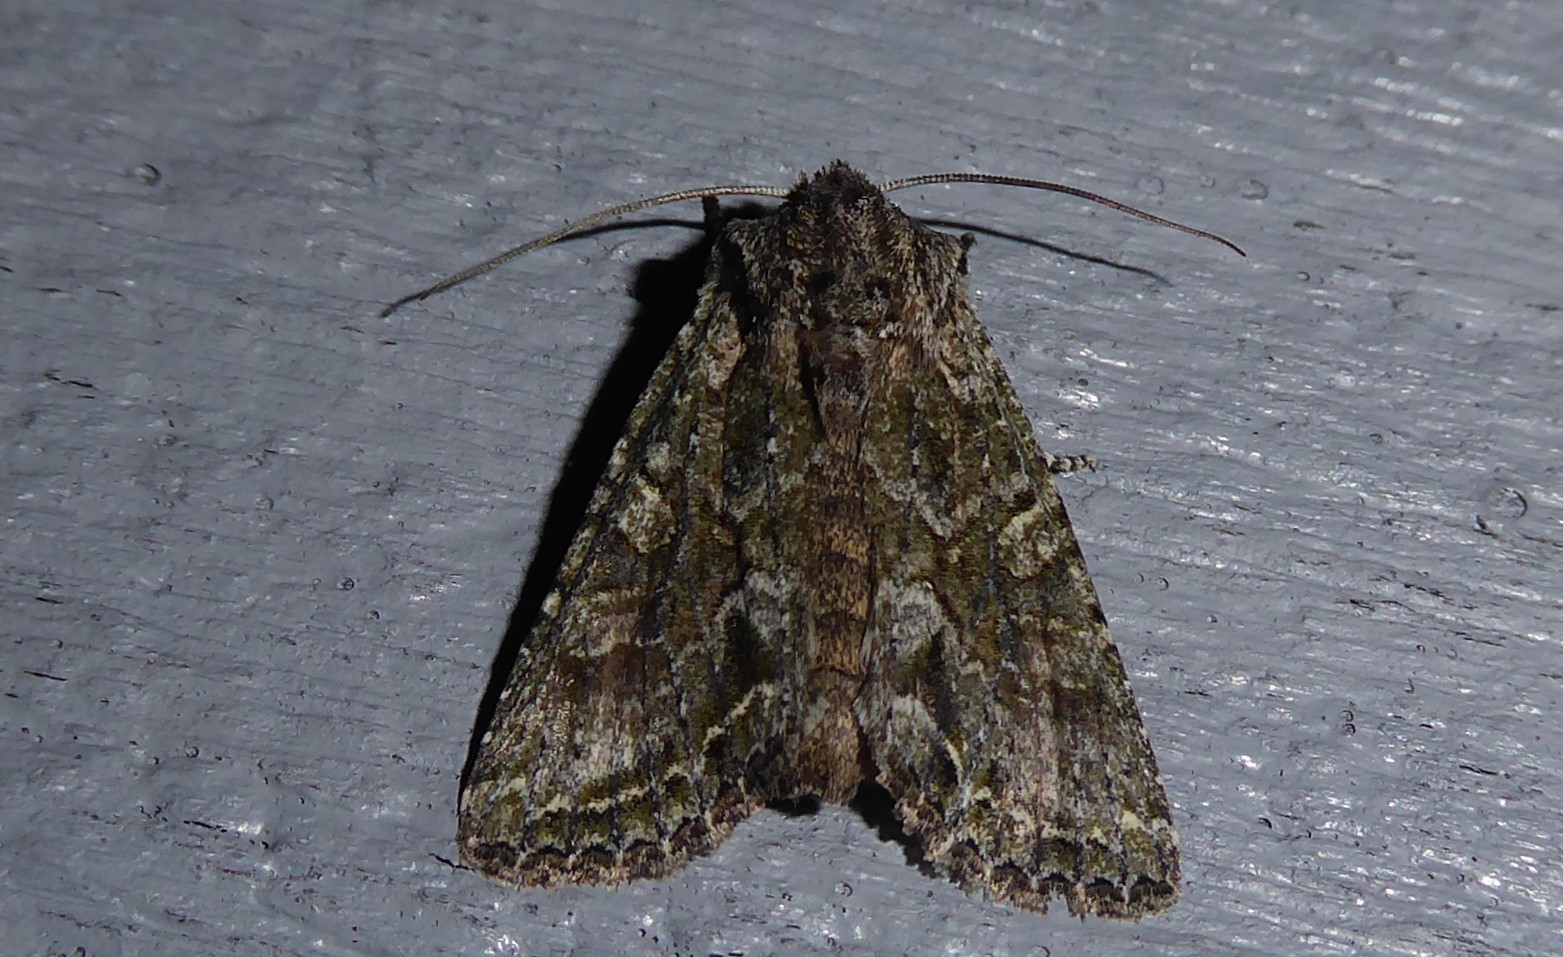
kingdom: Animalia
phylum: Arthropoda
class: Insecta
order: Lepidoptera
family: Noctuidae
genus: Ichneutica
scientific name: Ichneutica mutans
